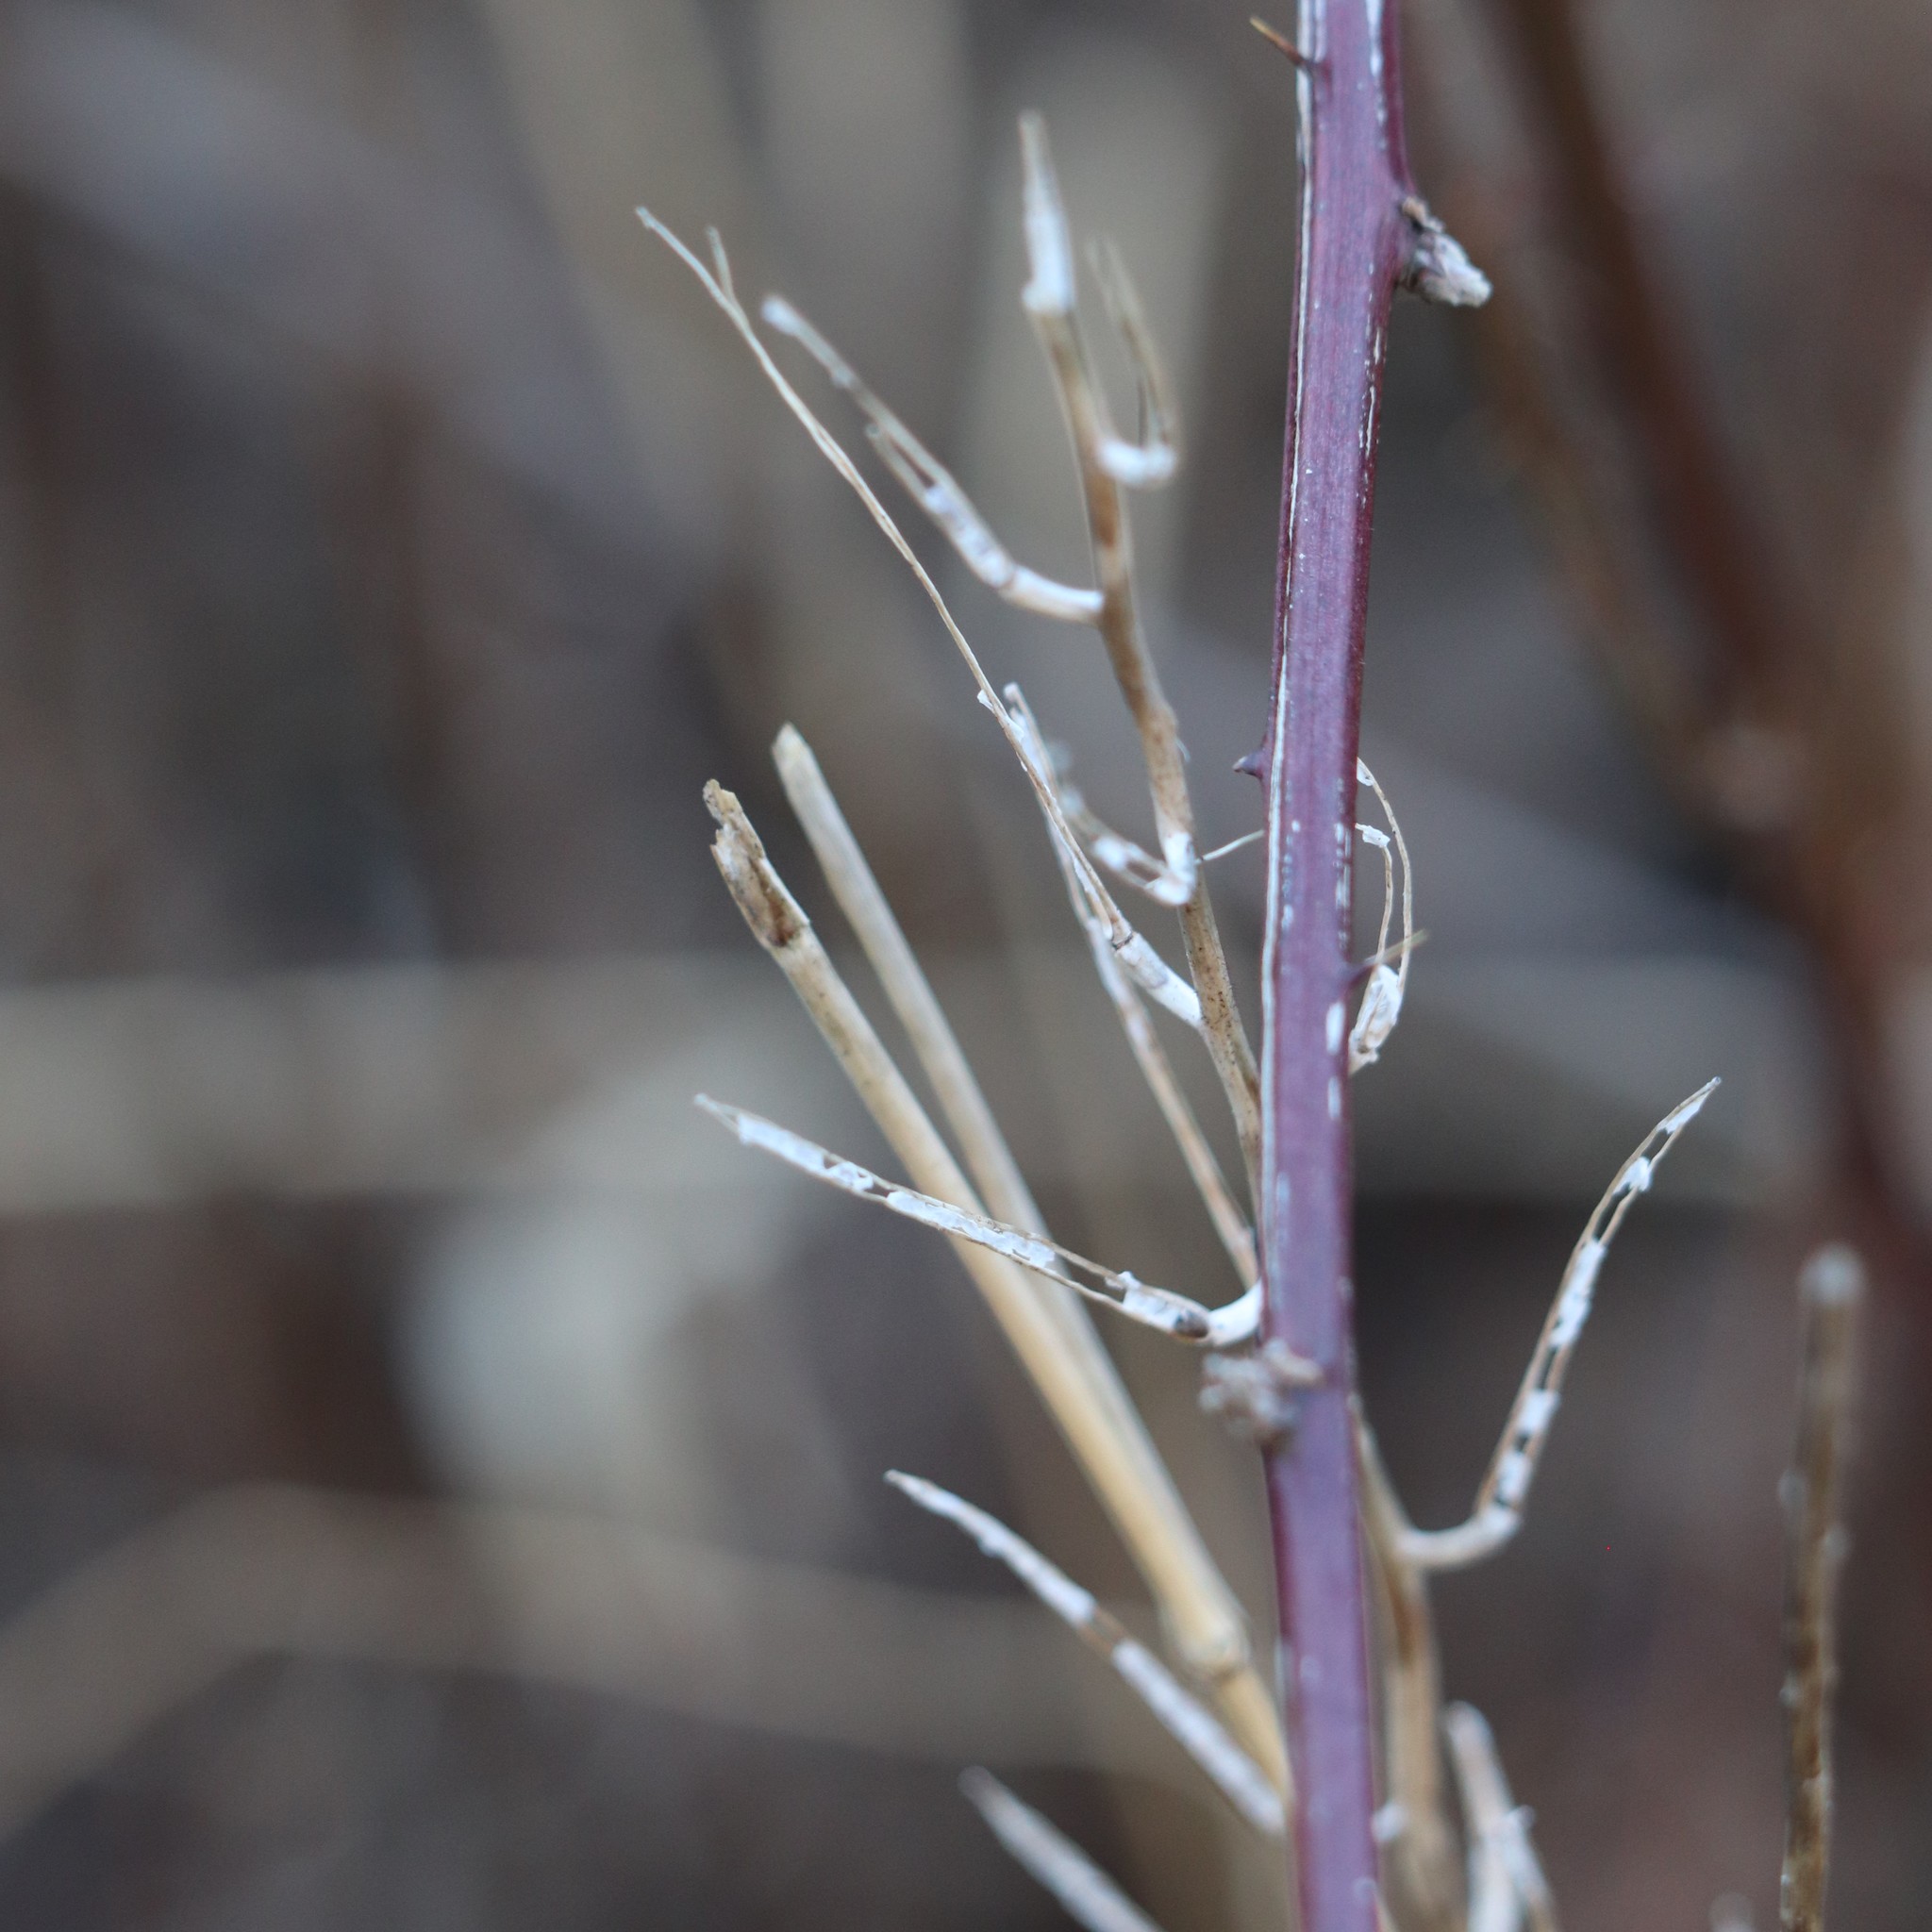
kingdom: Plantae
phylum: Tracheophyta
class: Magnoliopsida
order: Brassicales
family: Brassicaceae
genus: Alliaria
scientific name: Alliaria petiolata
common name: Garlic mustard
